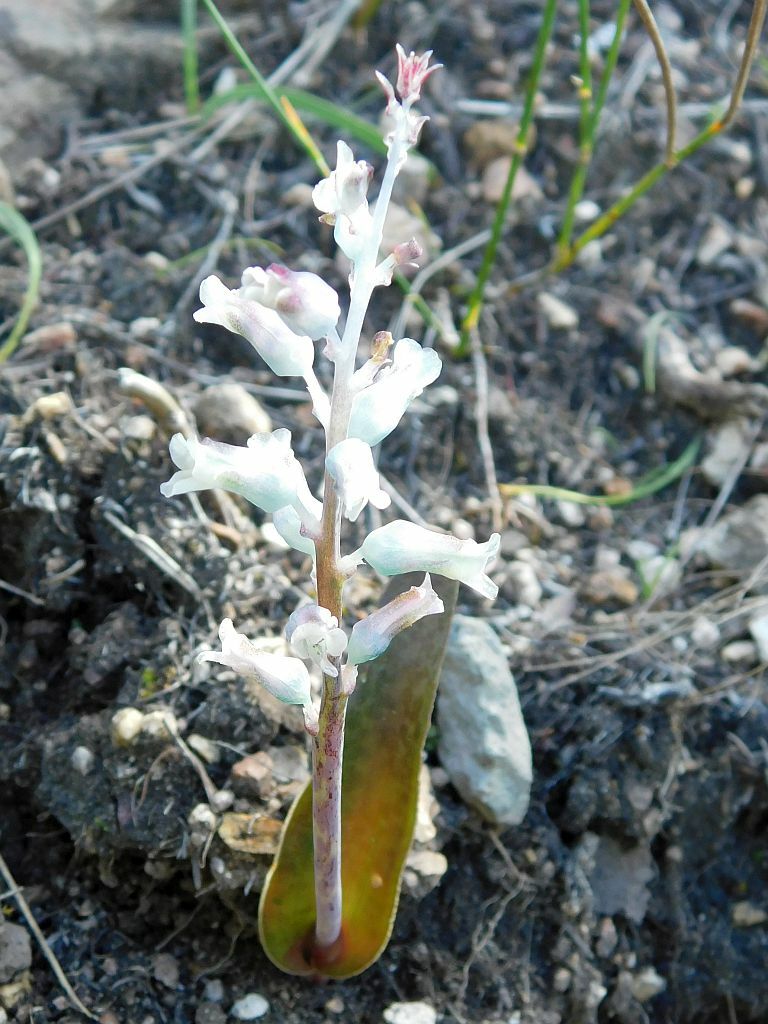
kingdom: Plantae
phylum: Tracheophyta
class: Liliopsida
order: Asparagales
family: Asparagaceae
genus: Lachenalia
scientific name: Lachenalia rosea
